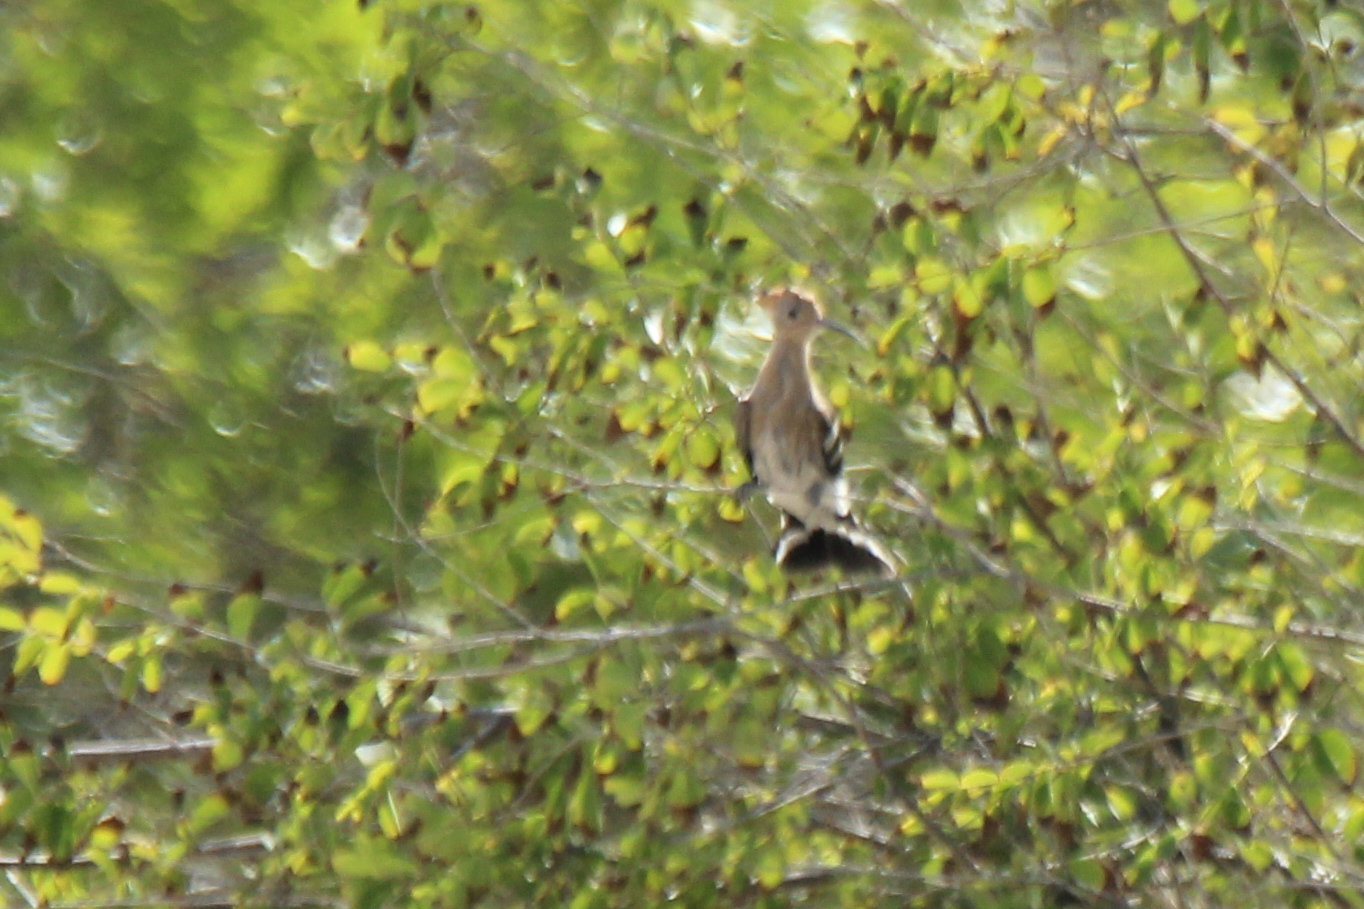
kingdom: Animalia
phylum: Chordata
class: Aves
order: Bucerotiformes
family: Upupidae
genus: Upupa
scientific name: Upupa epops
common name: Eurasian hoopoe
